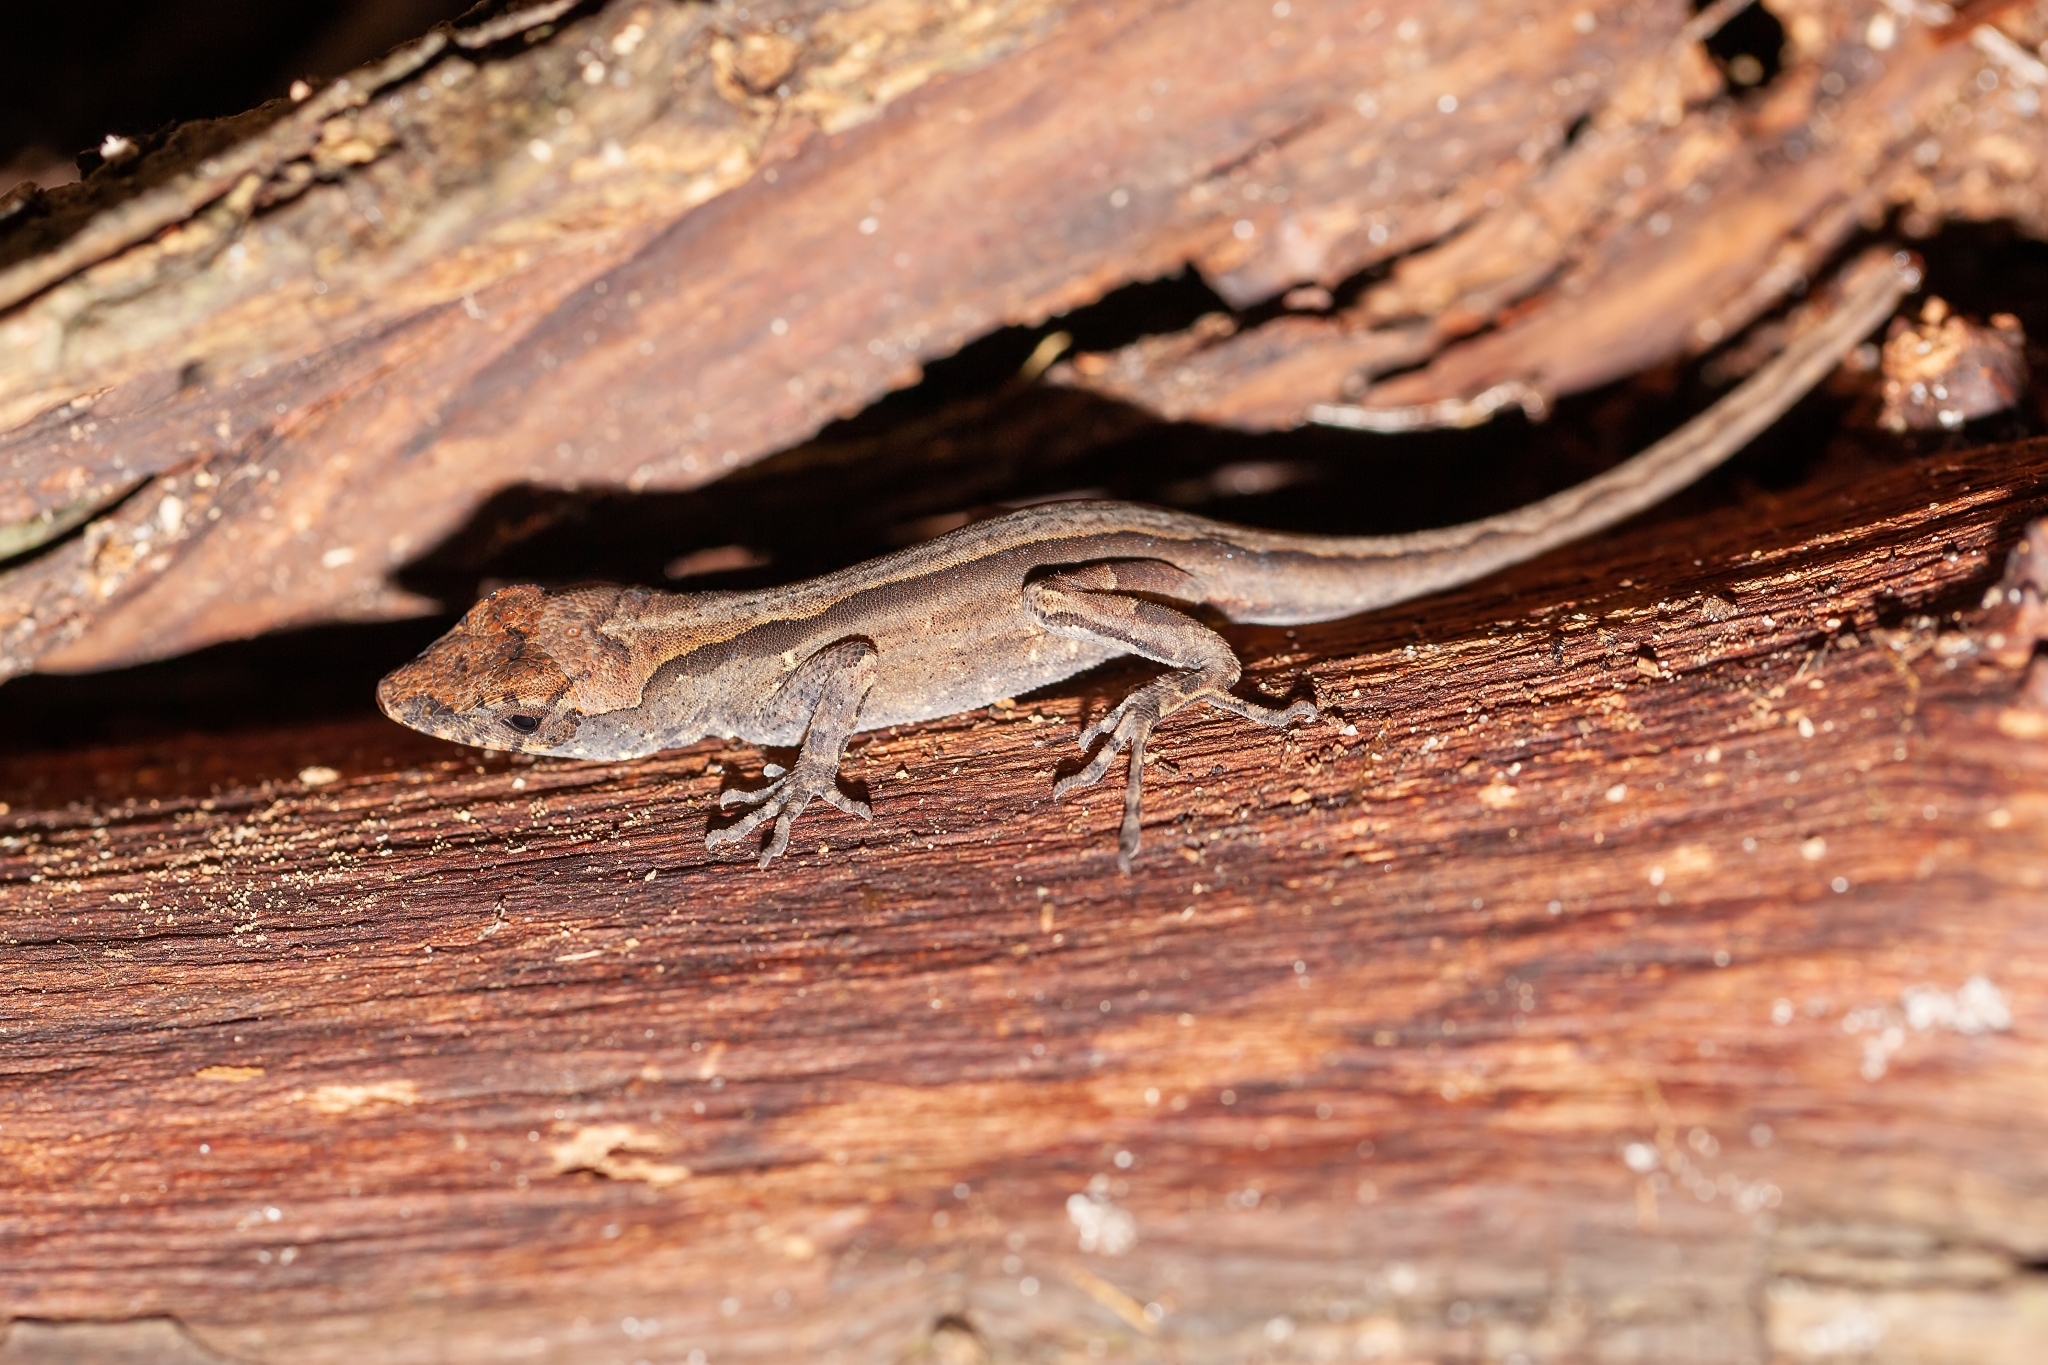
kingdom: Animalia
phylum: Chordata
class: Squamata
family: Dactyloidae
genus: Anolis
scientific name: Anolis sagrei
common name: Brown anole
